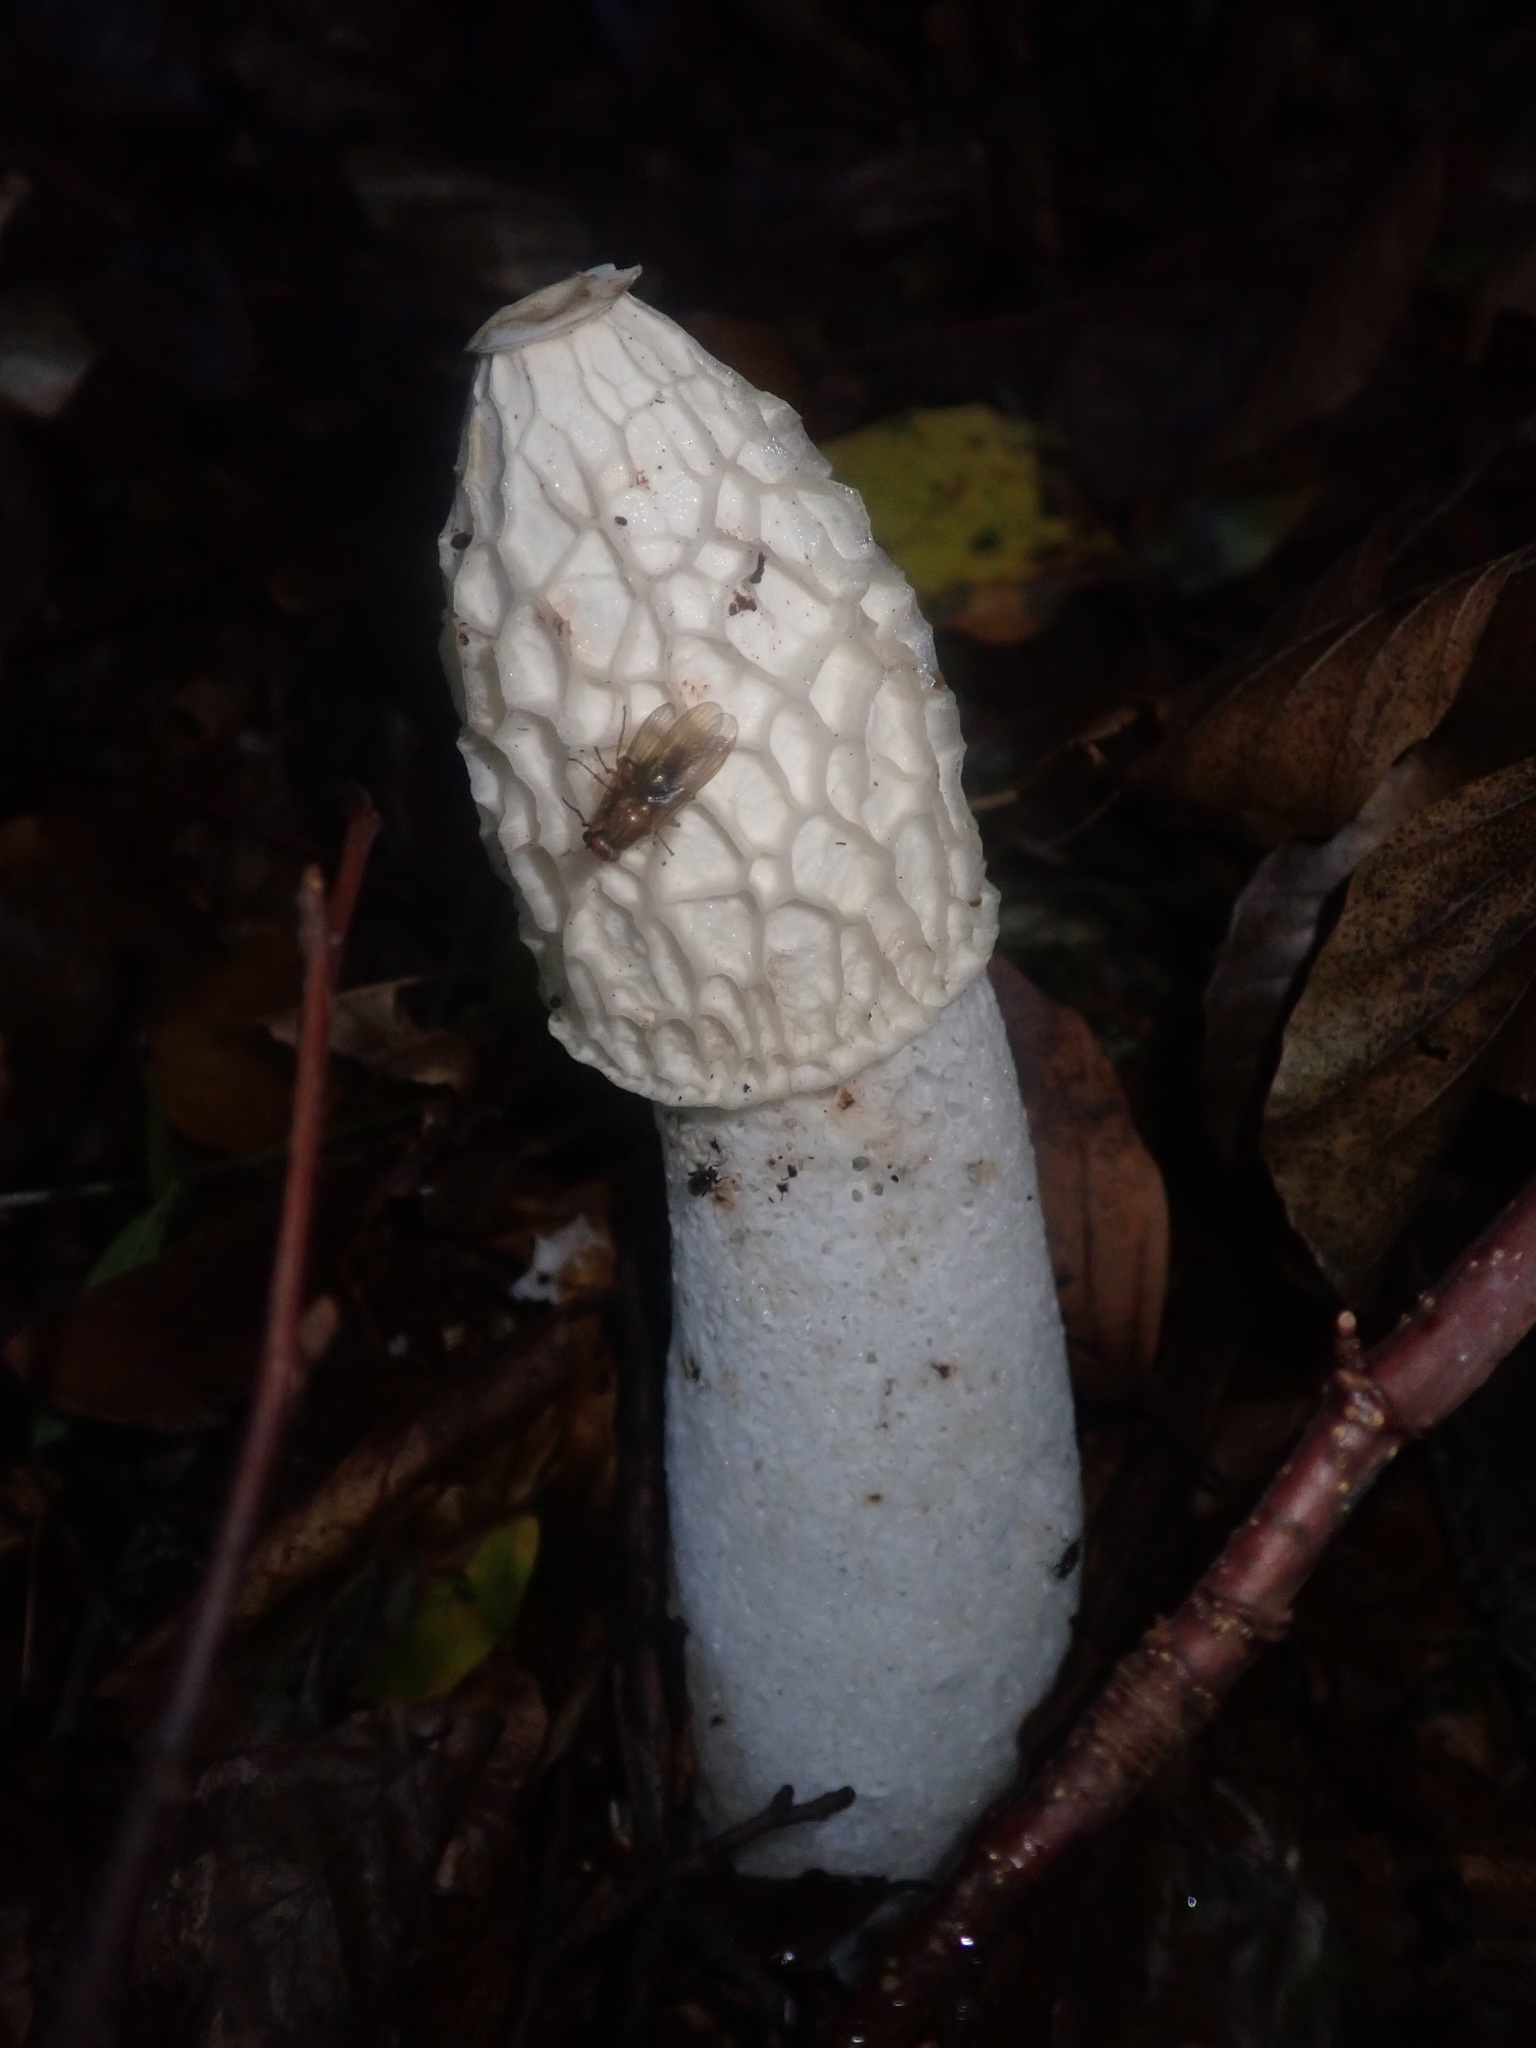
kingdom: Fungi
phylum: Basidiomycota
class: Agaricomycetes
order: Phallales
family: Phallaceae
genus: Phallus
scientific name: Phallus impudicus
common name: Common stinkhorn
